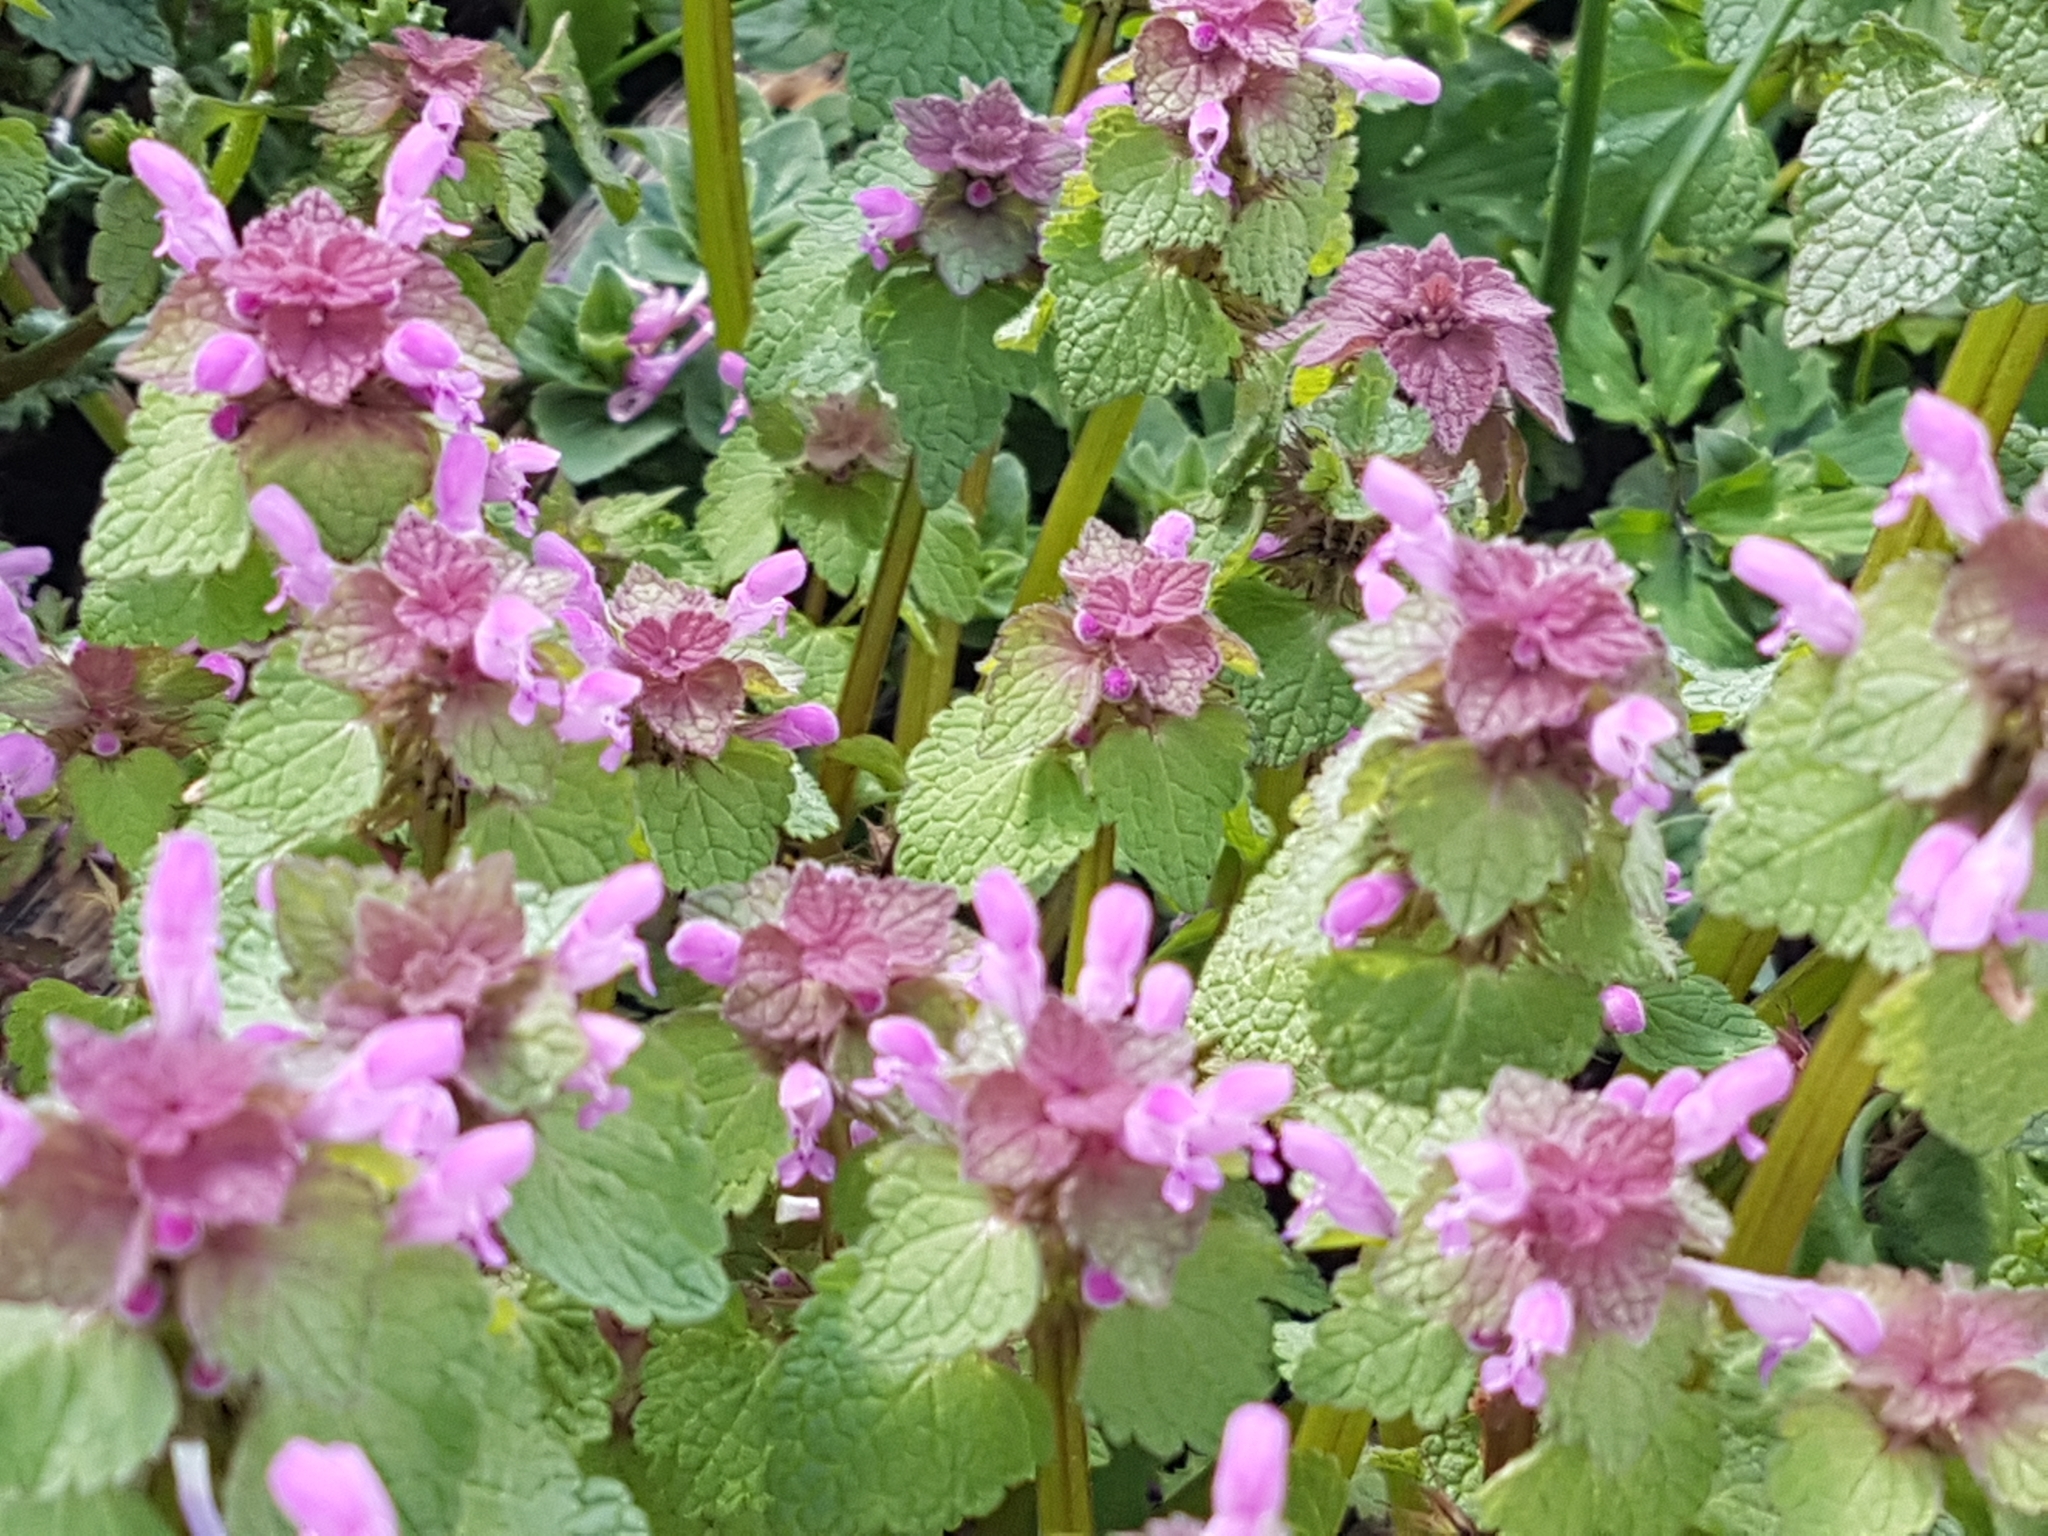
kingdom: Plantae
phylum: Tracheophyta
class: Magnoliopsida
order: Lamiales
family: Lamiaceae
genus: Lamium
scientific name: Lamium purpureum
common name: Red dead-nettle
